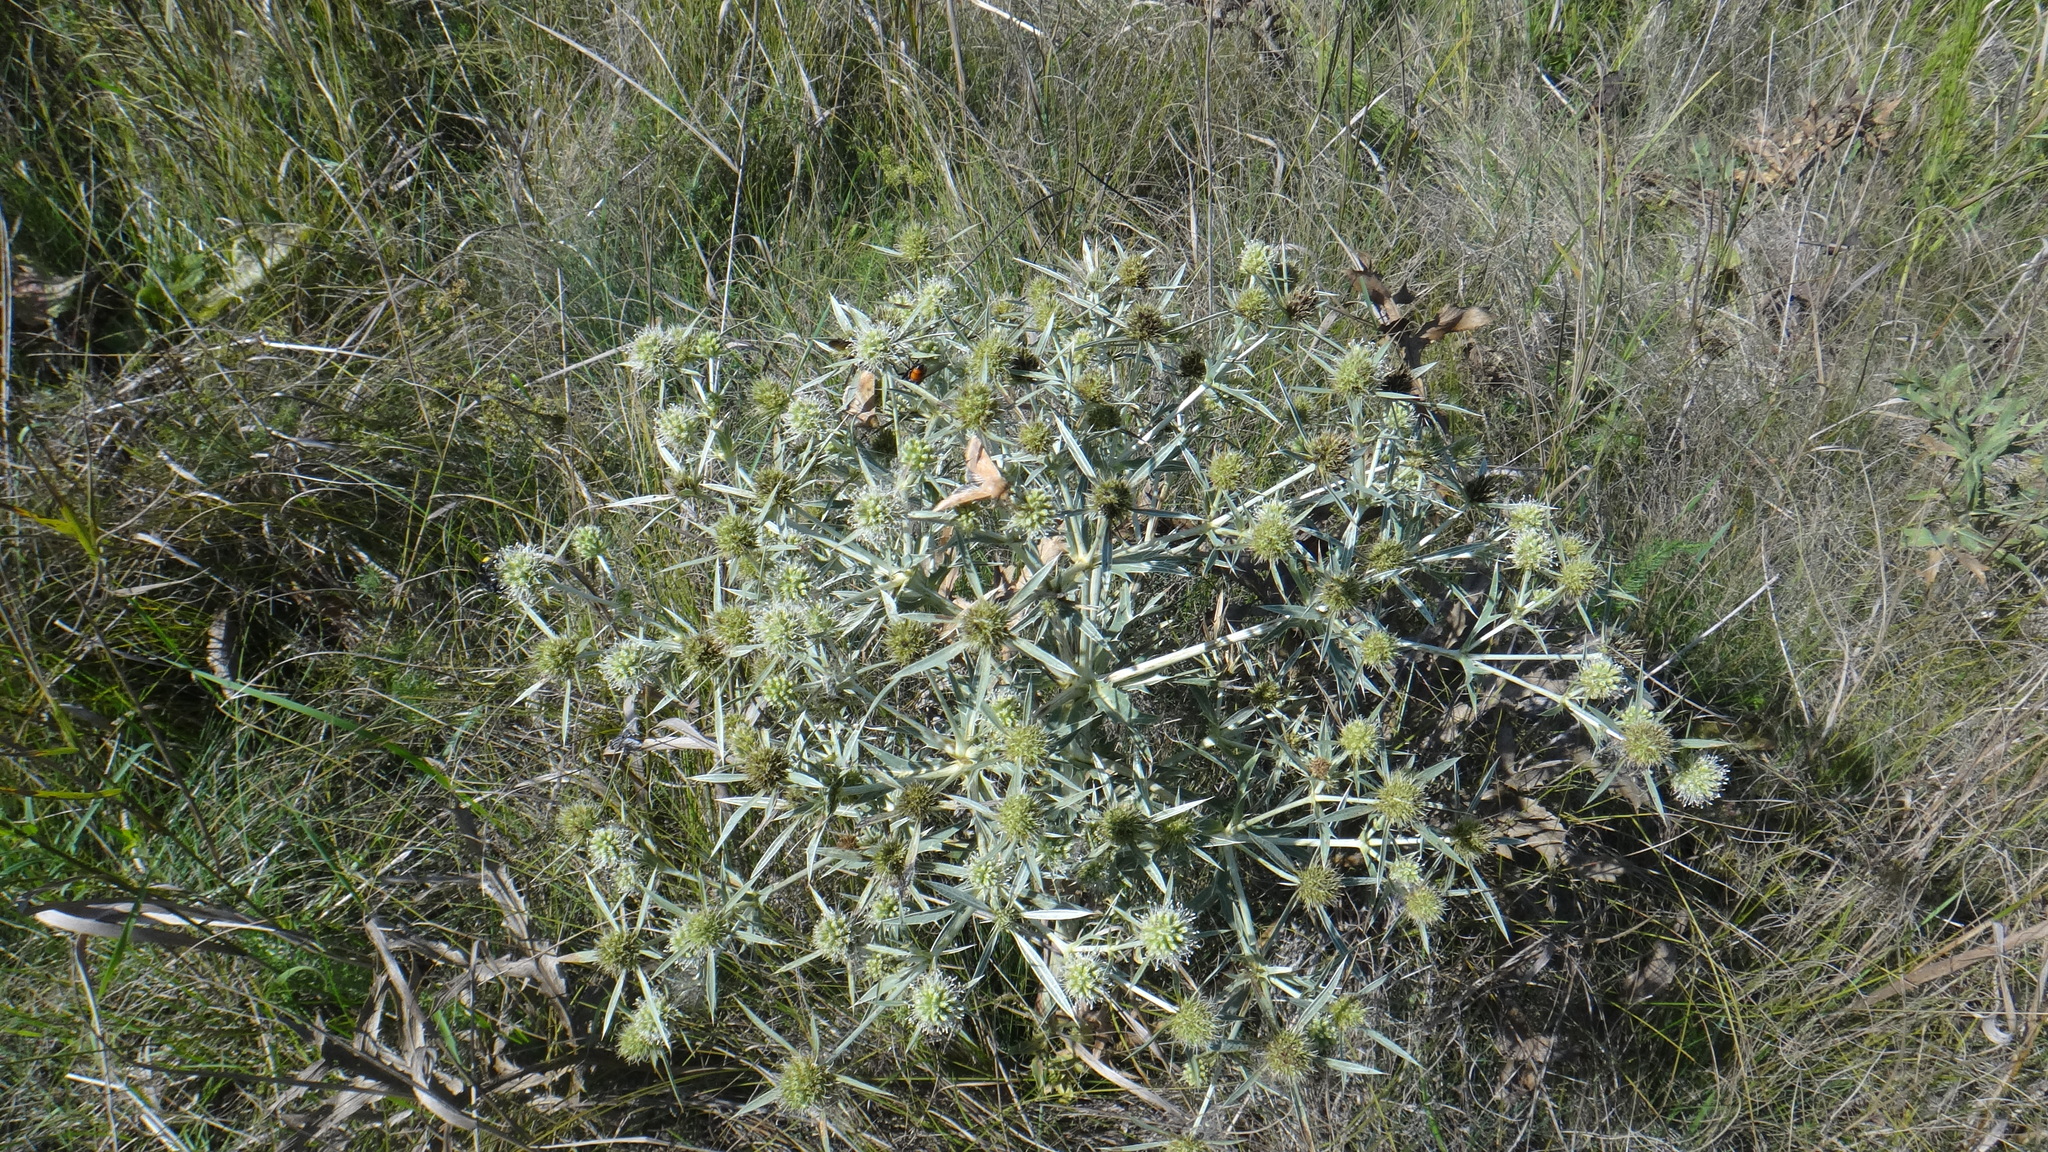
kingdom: Plantae
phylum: Tracheophyta
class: Magnoliopsida
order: Apiales
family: Apiaceae
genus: Eryngium
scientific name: Eryngium campestre
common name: Field eryngo
